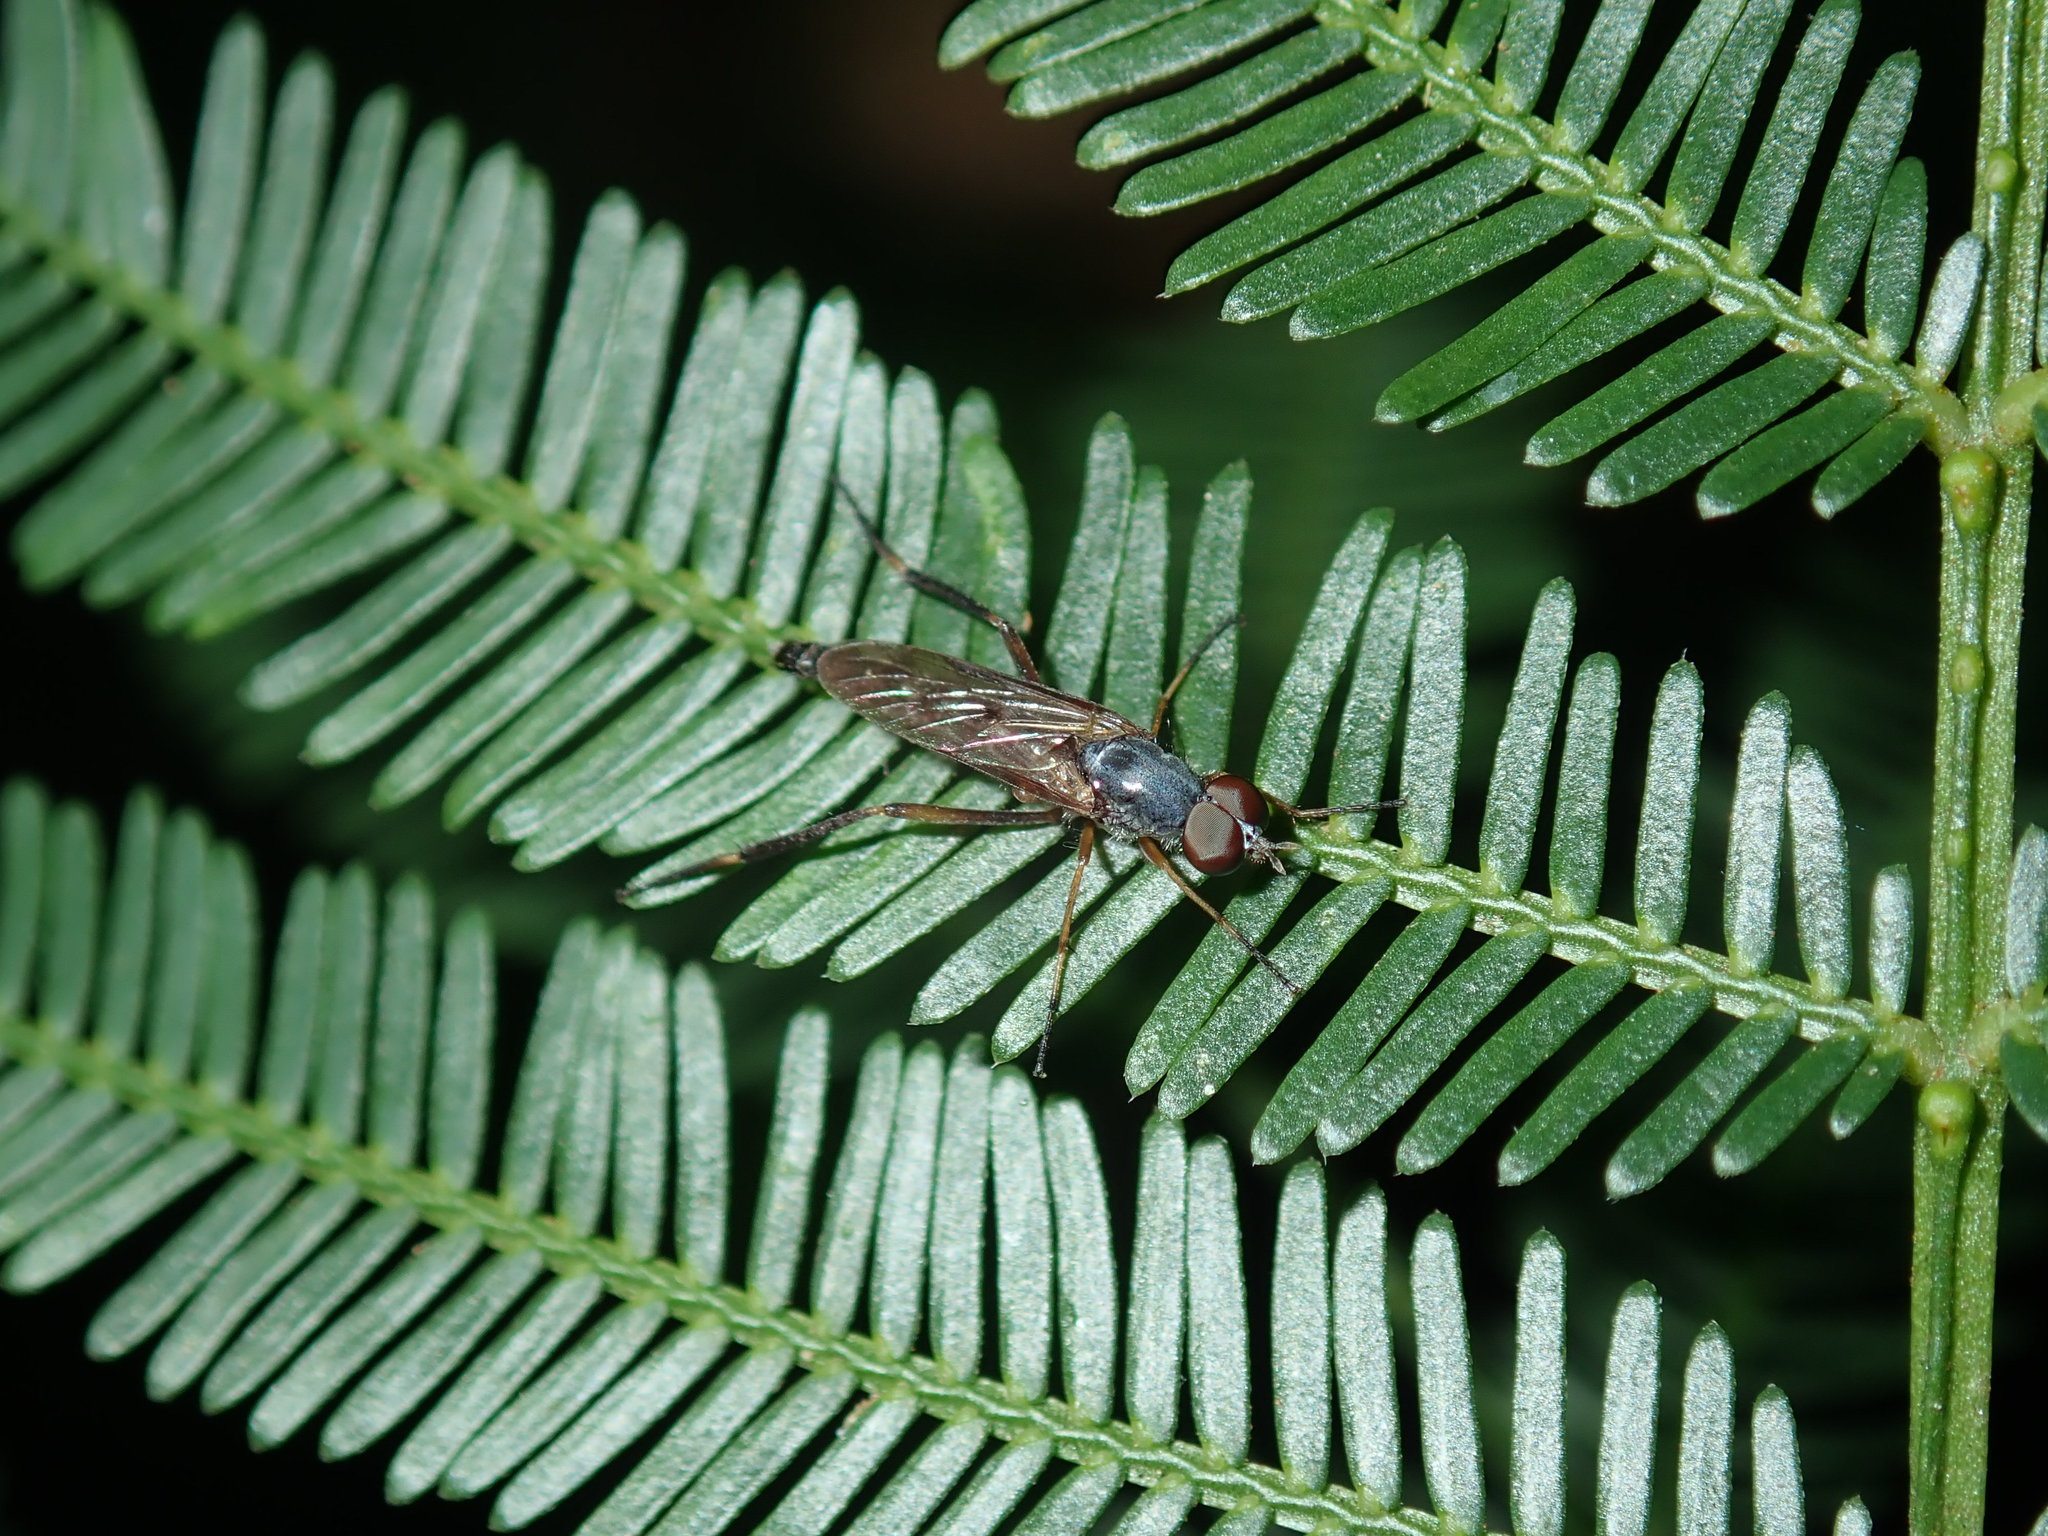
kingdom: Animalia
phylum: Arthropoda
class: Insecta
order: Diptera
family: Therevidae
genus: Taenogerella
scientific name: Taenogerella elizabethae
